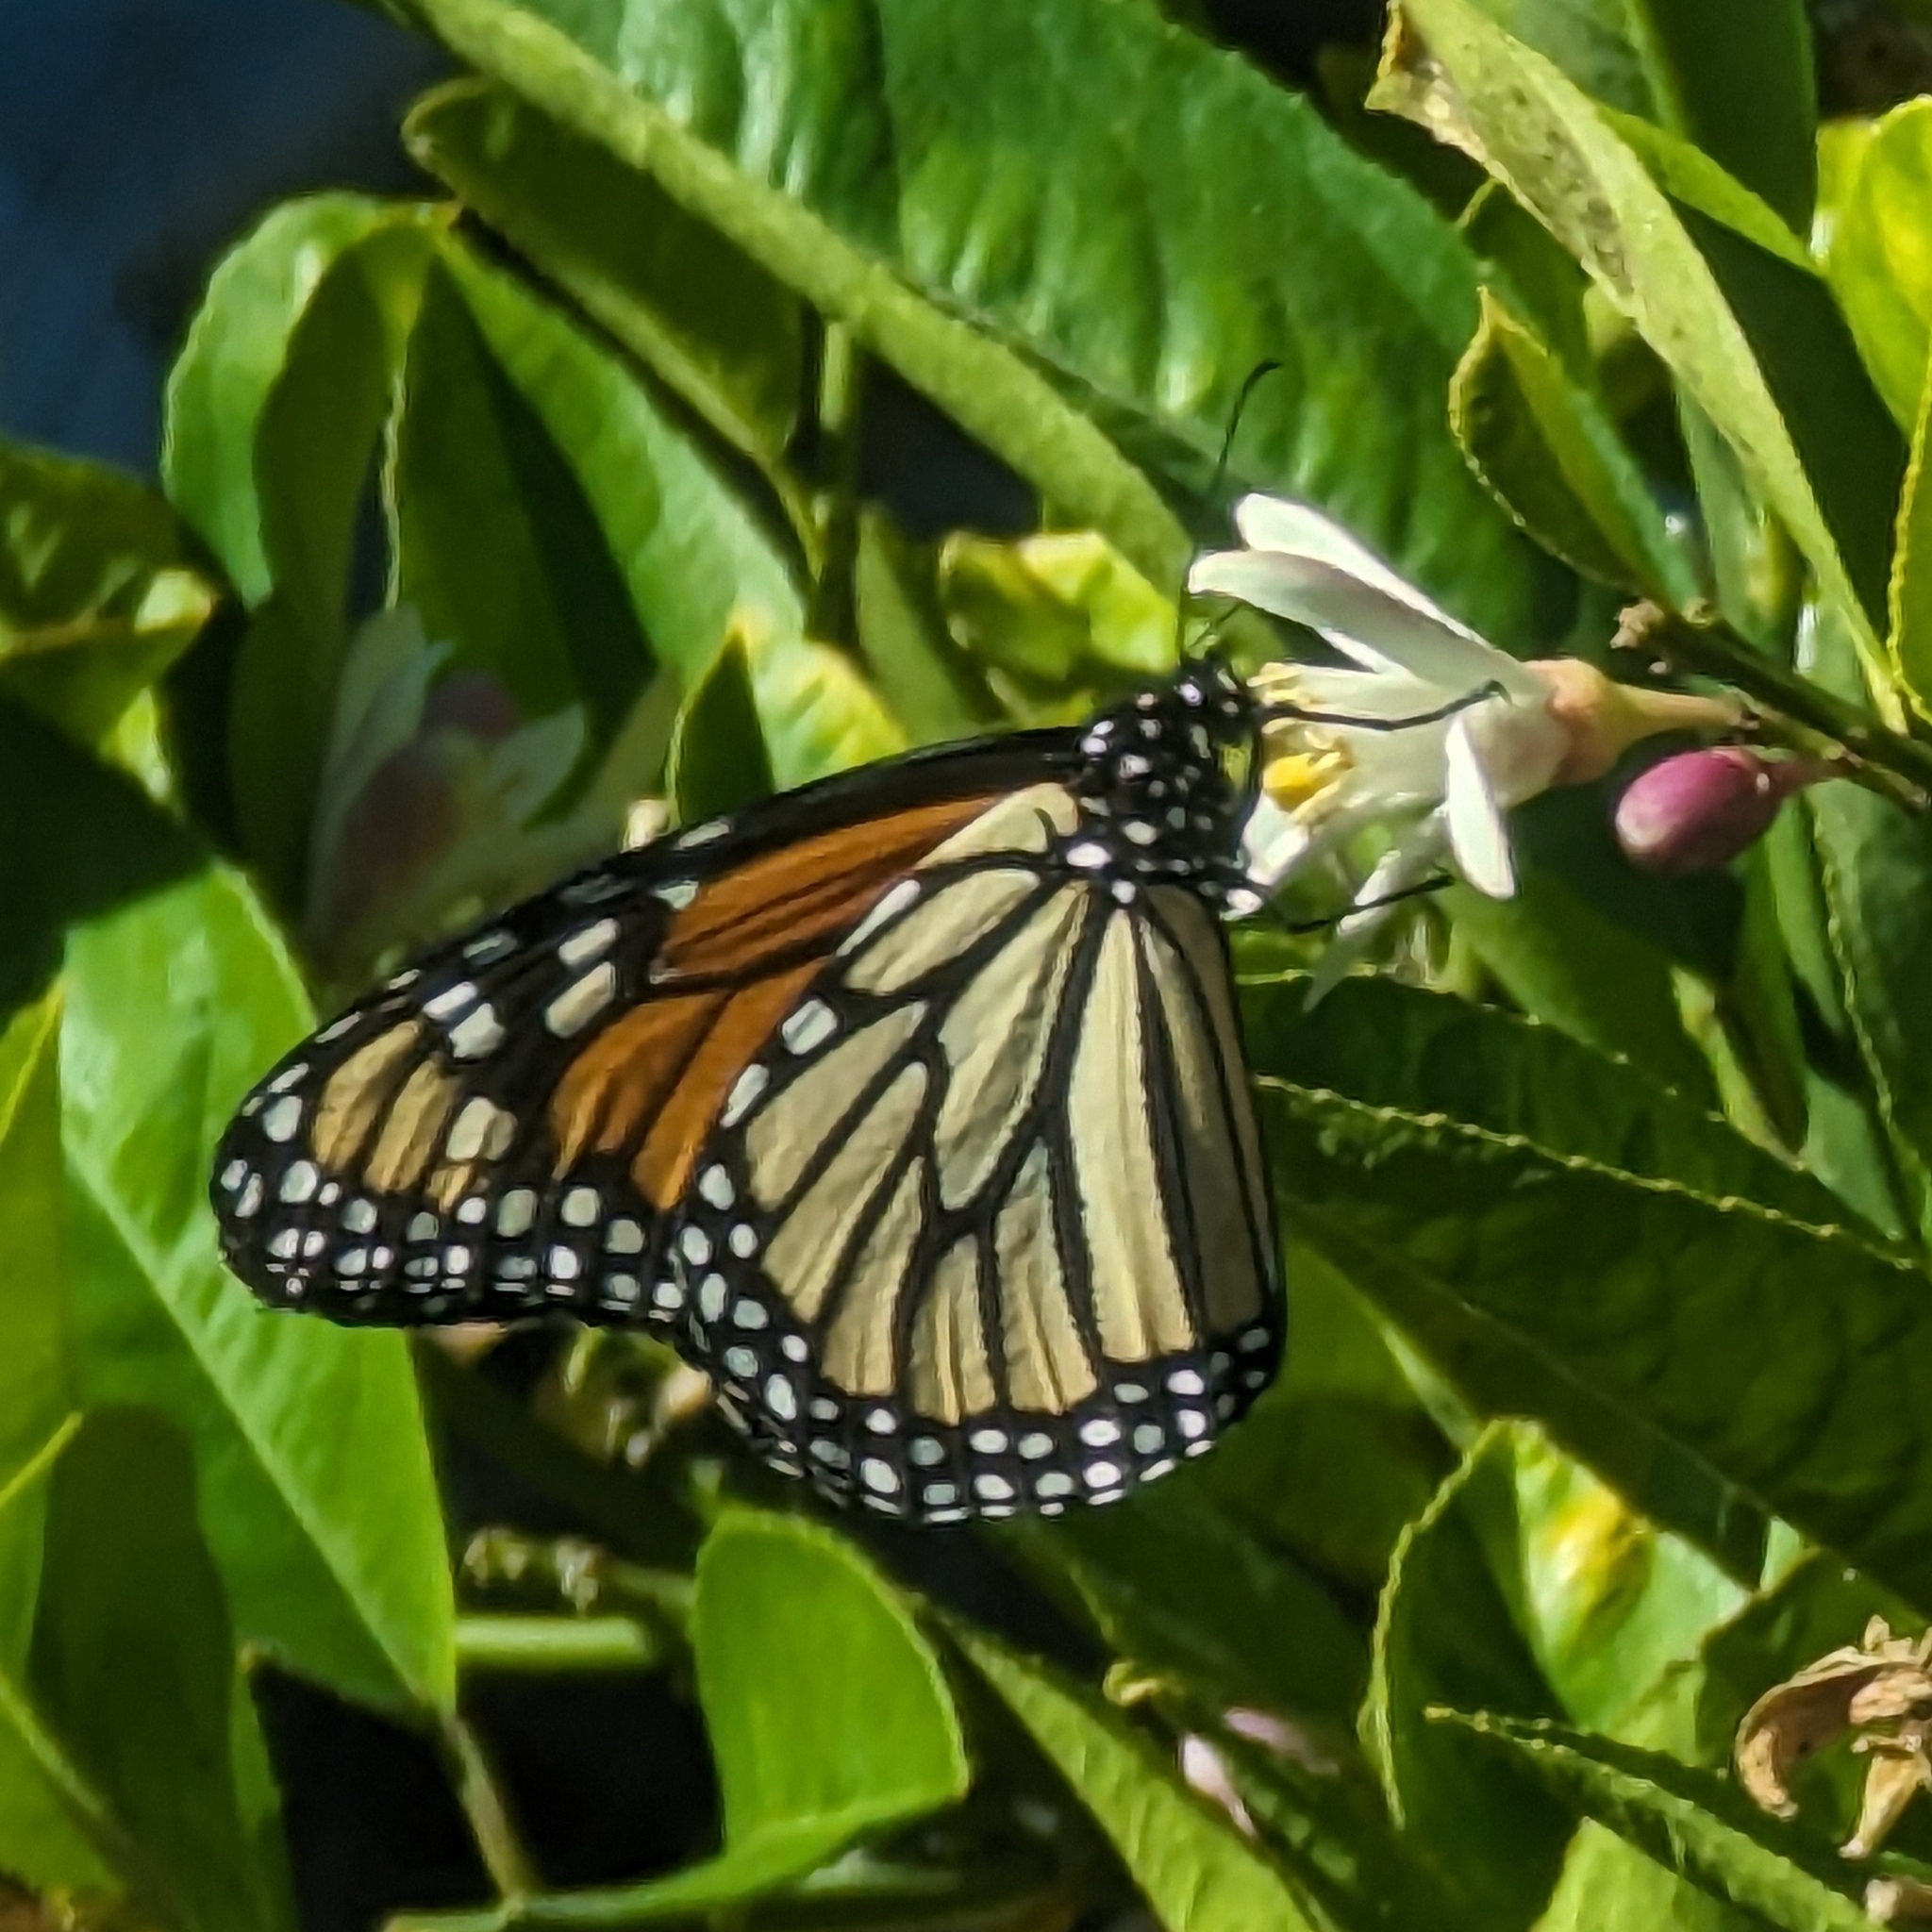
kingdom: Animalia
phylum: Arthropoda
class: Insecta
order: Lepidoptera
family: Nymphalidae
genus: Danaus
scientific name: Danaus plexippus
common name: Monarch
